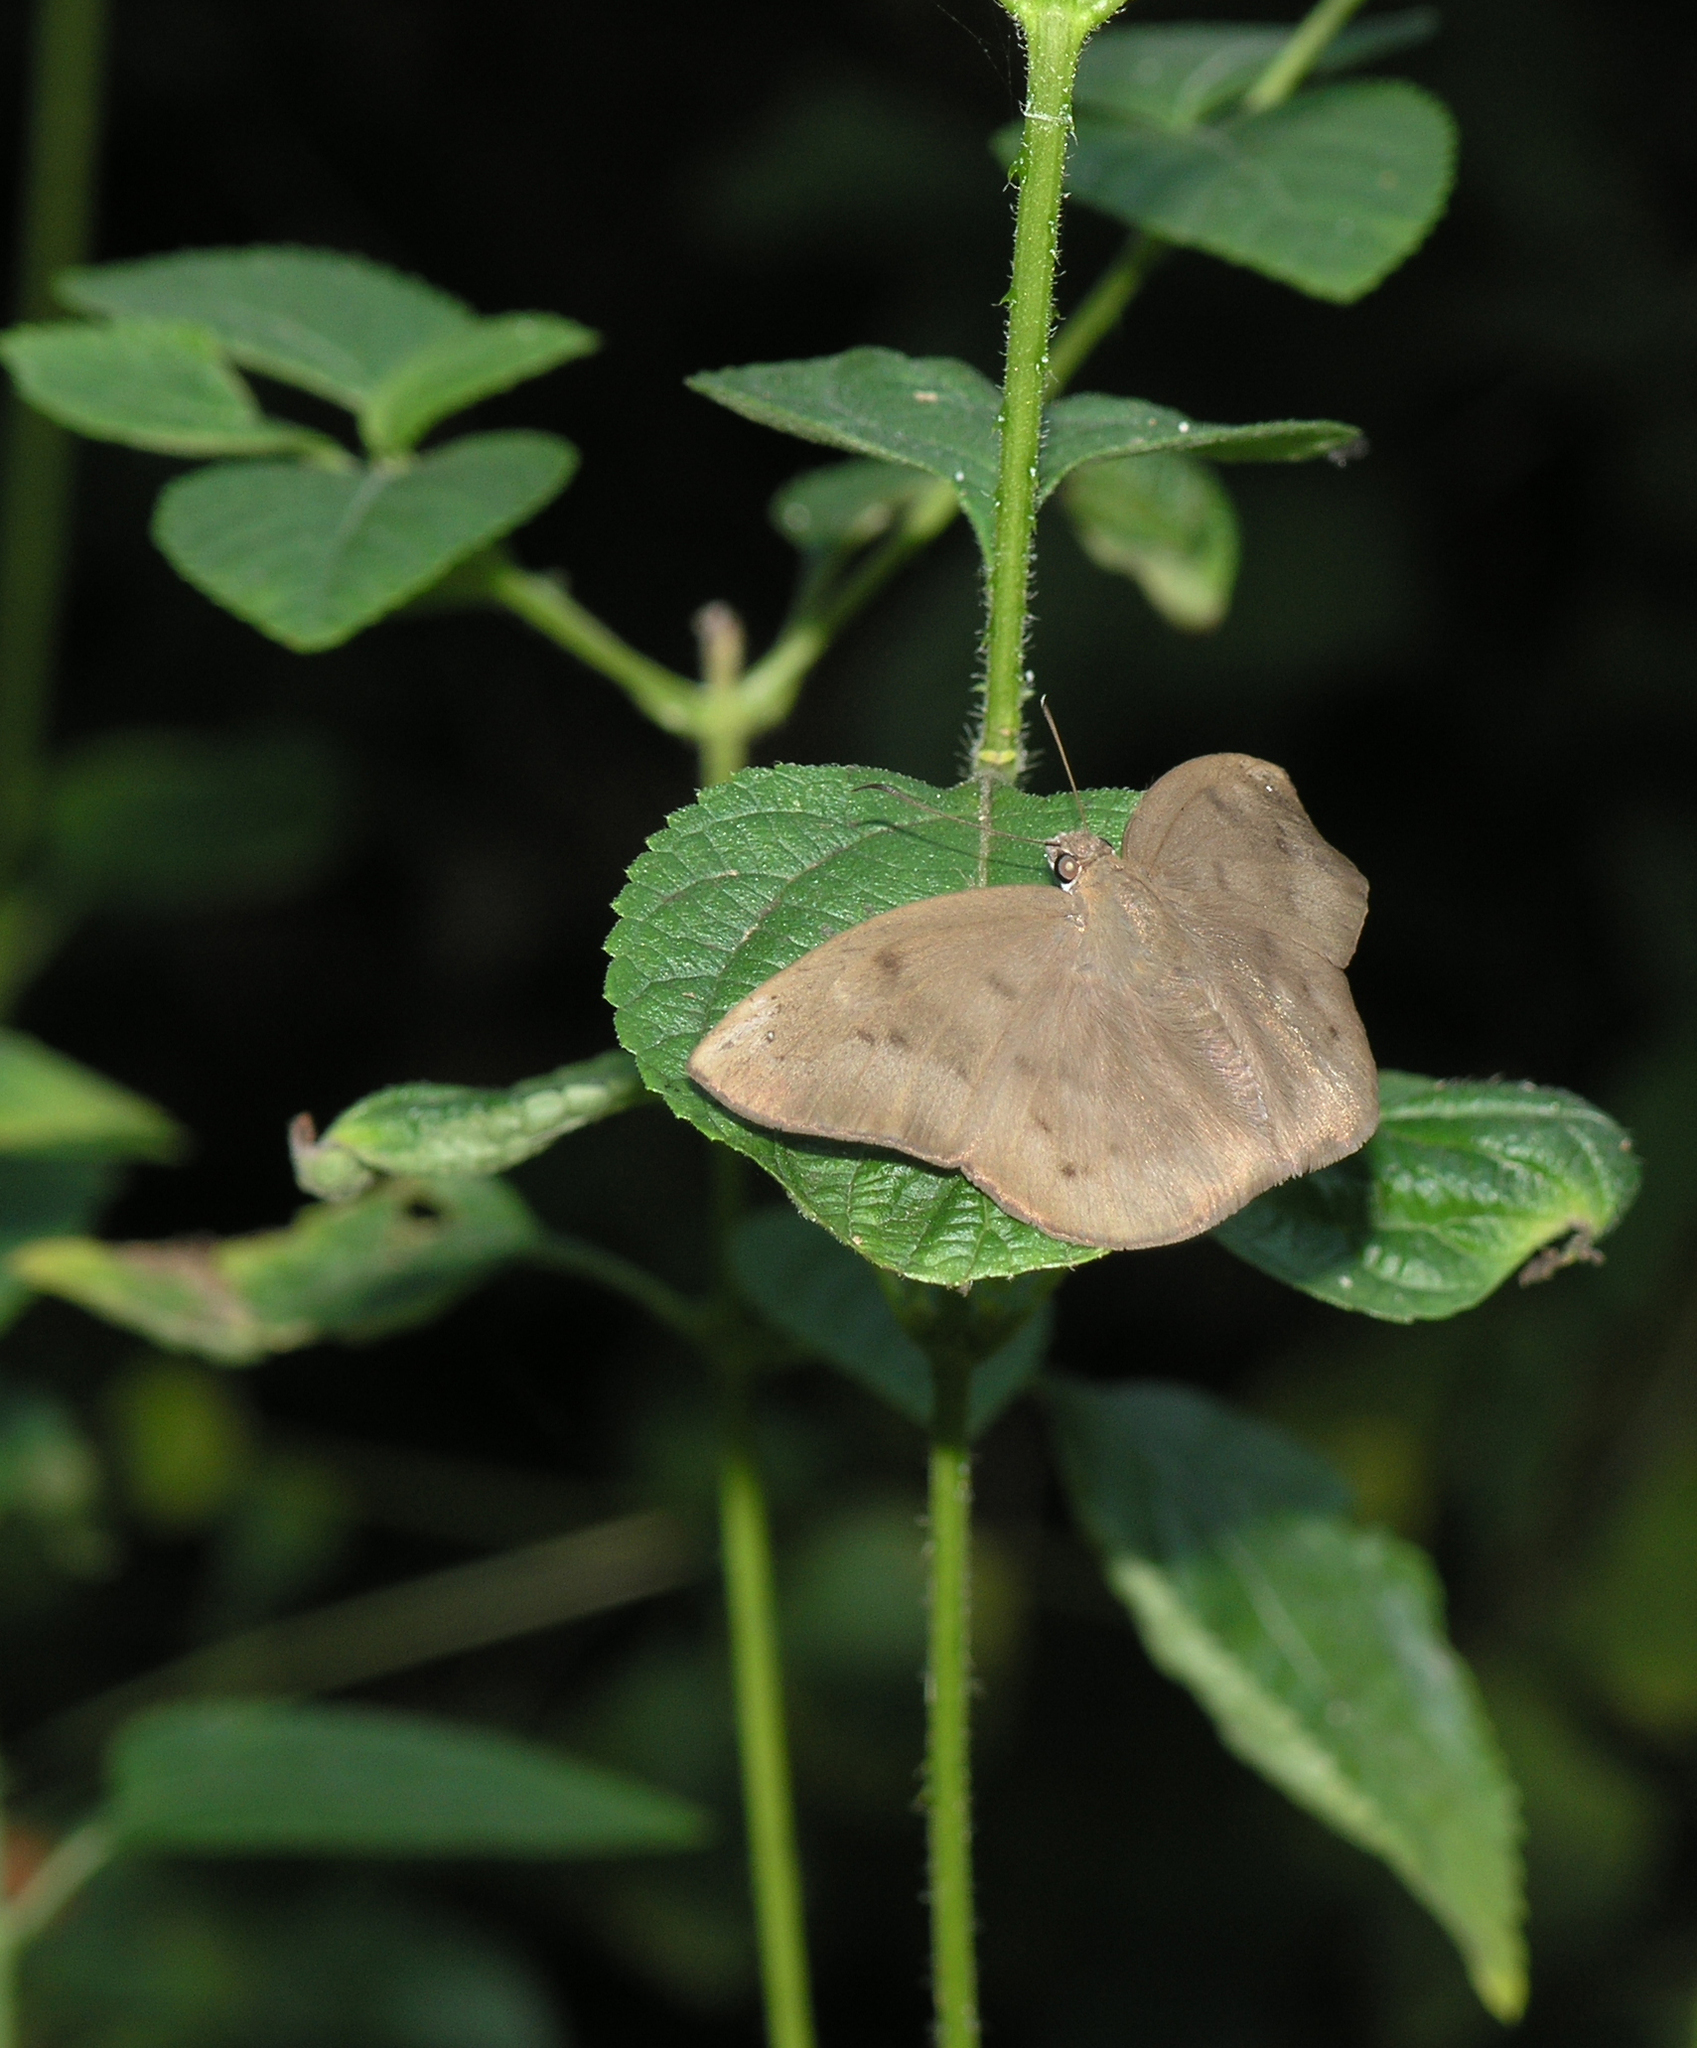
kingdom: Animalia
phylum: Arthropoda
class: Insecta
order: Lepidoptera
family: Hesperiidae
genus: Tagiades
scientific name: Tagiades japetus
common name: Pied flat
